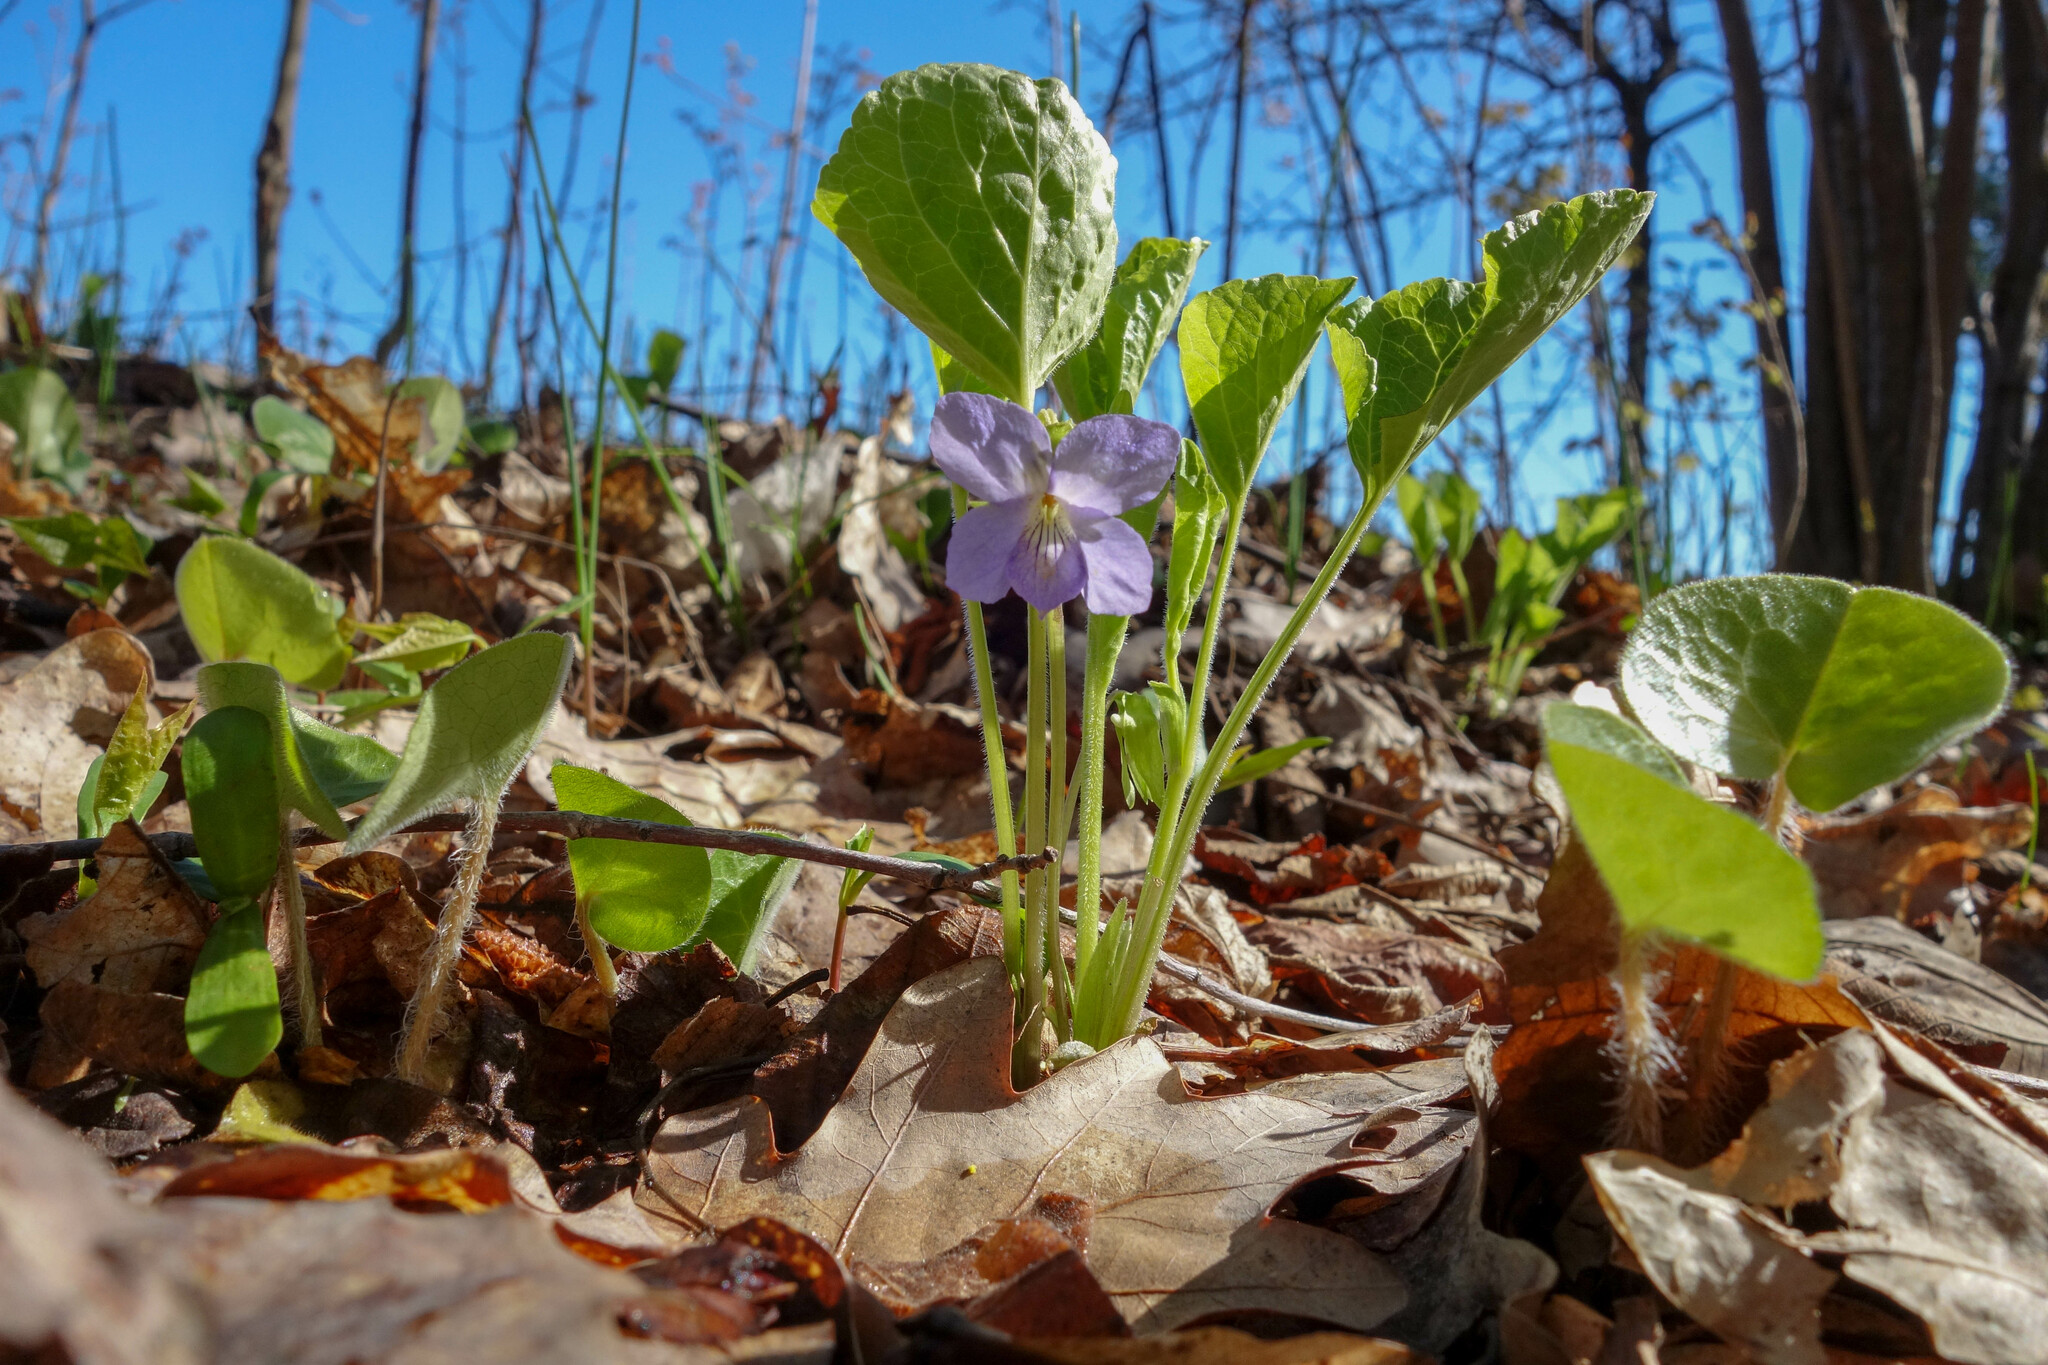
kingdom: Plantae
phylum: Tracheophyta
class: Magnoliopsida
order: Malpighiales
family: Violaceae
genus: Viola
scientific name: Viola mirabilis
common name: Wonder violet
